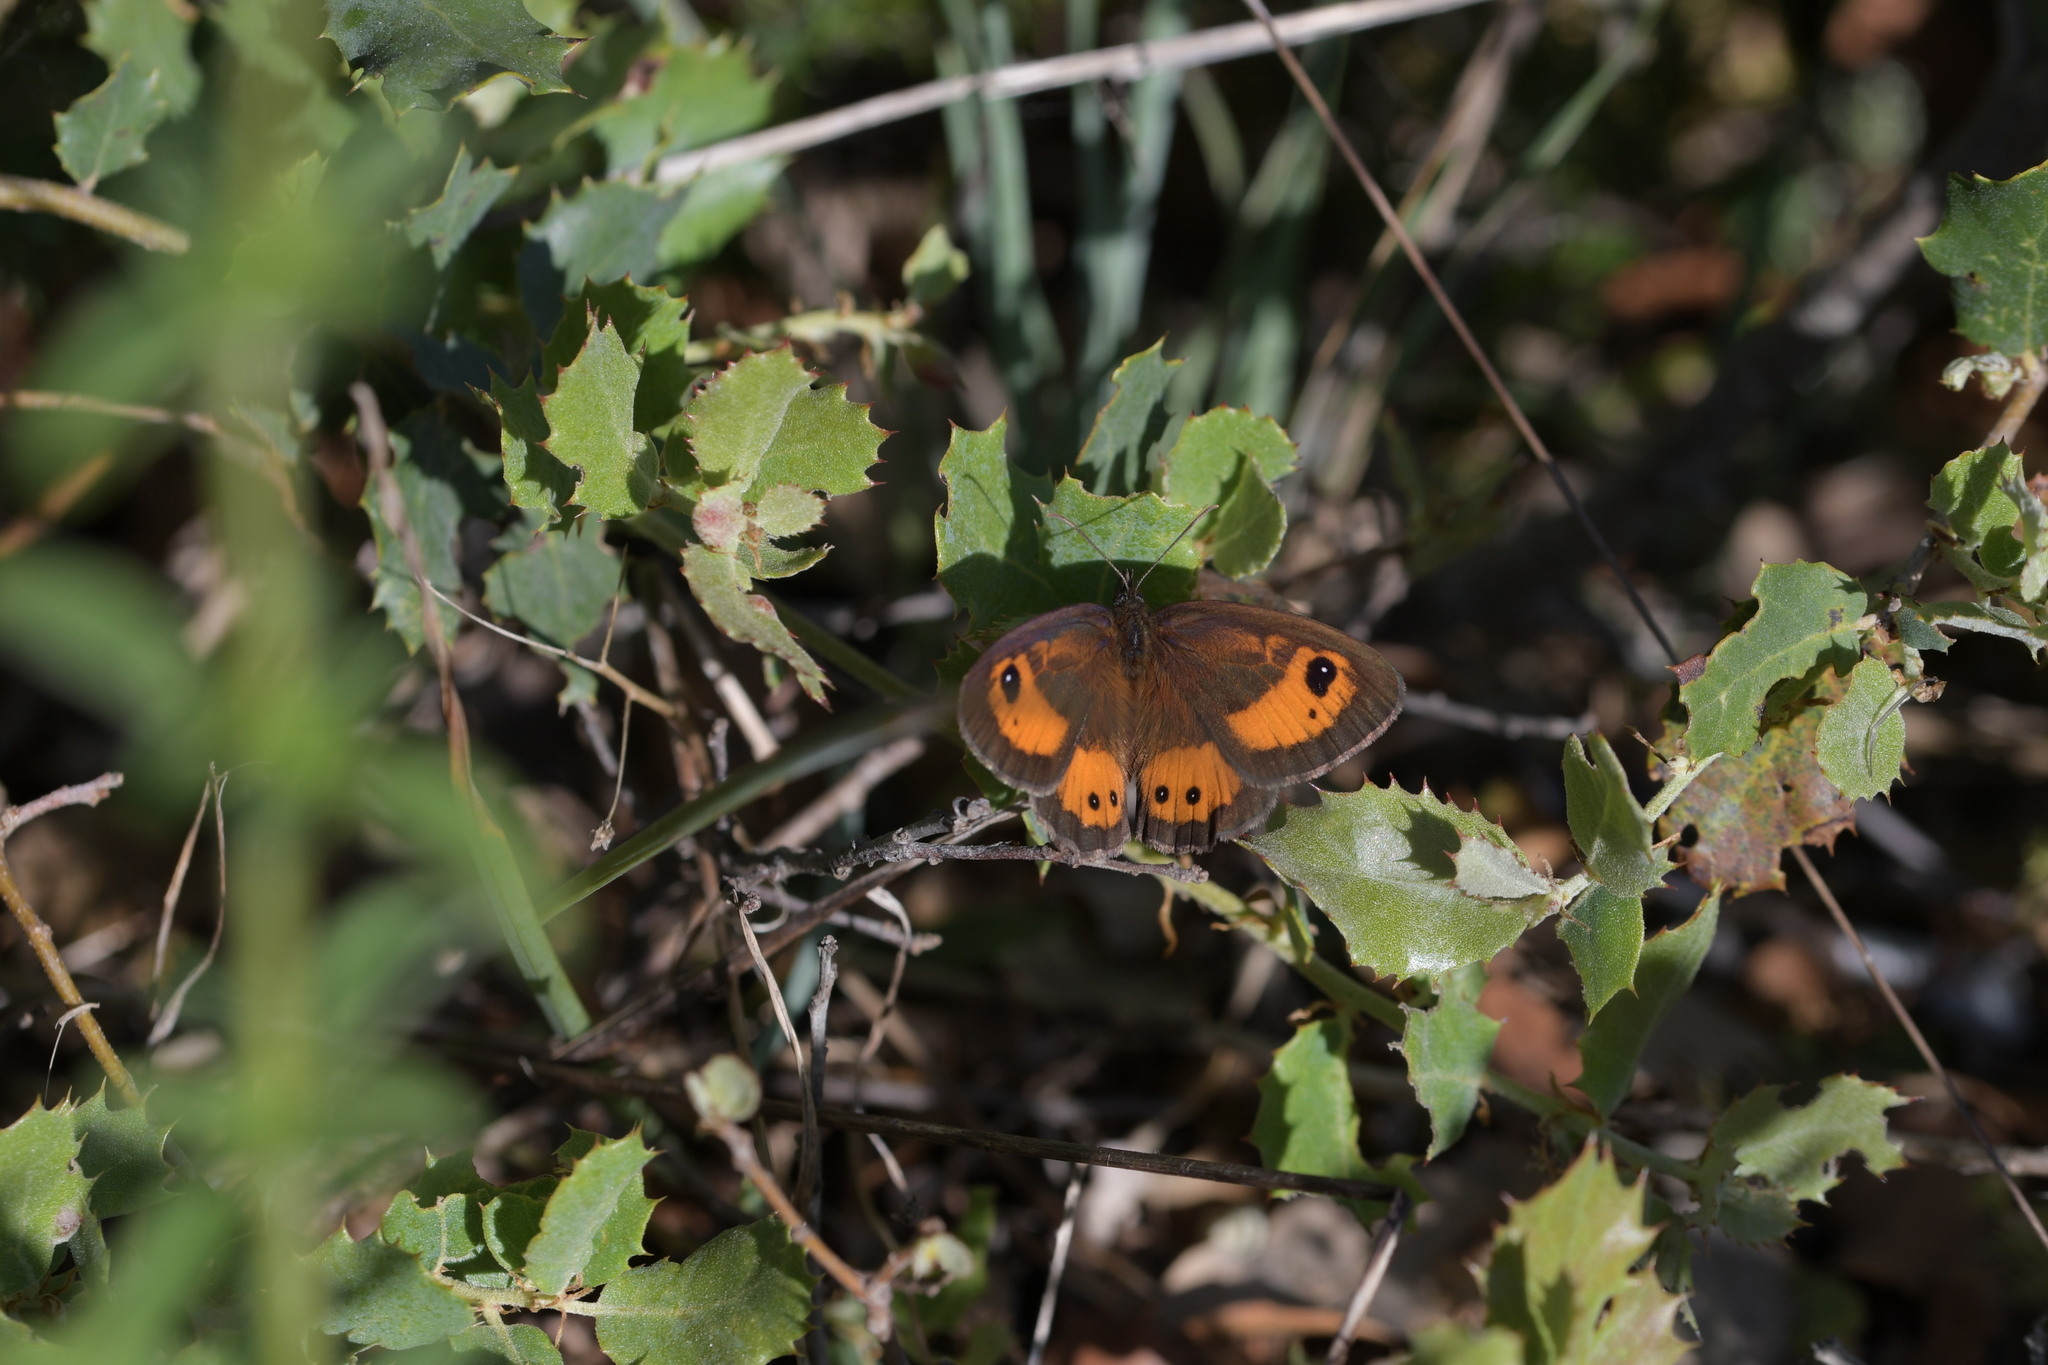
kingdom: Animalia
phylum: Arthropoda
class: Insecta
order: Lepidoptera
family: Nymphalidae
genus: Pyronia
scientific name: Pyronia bathseba
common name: Spanish gatekeeper
